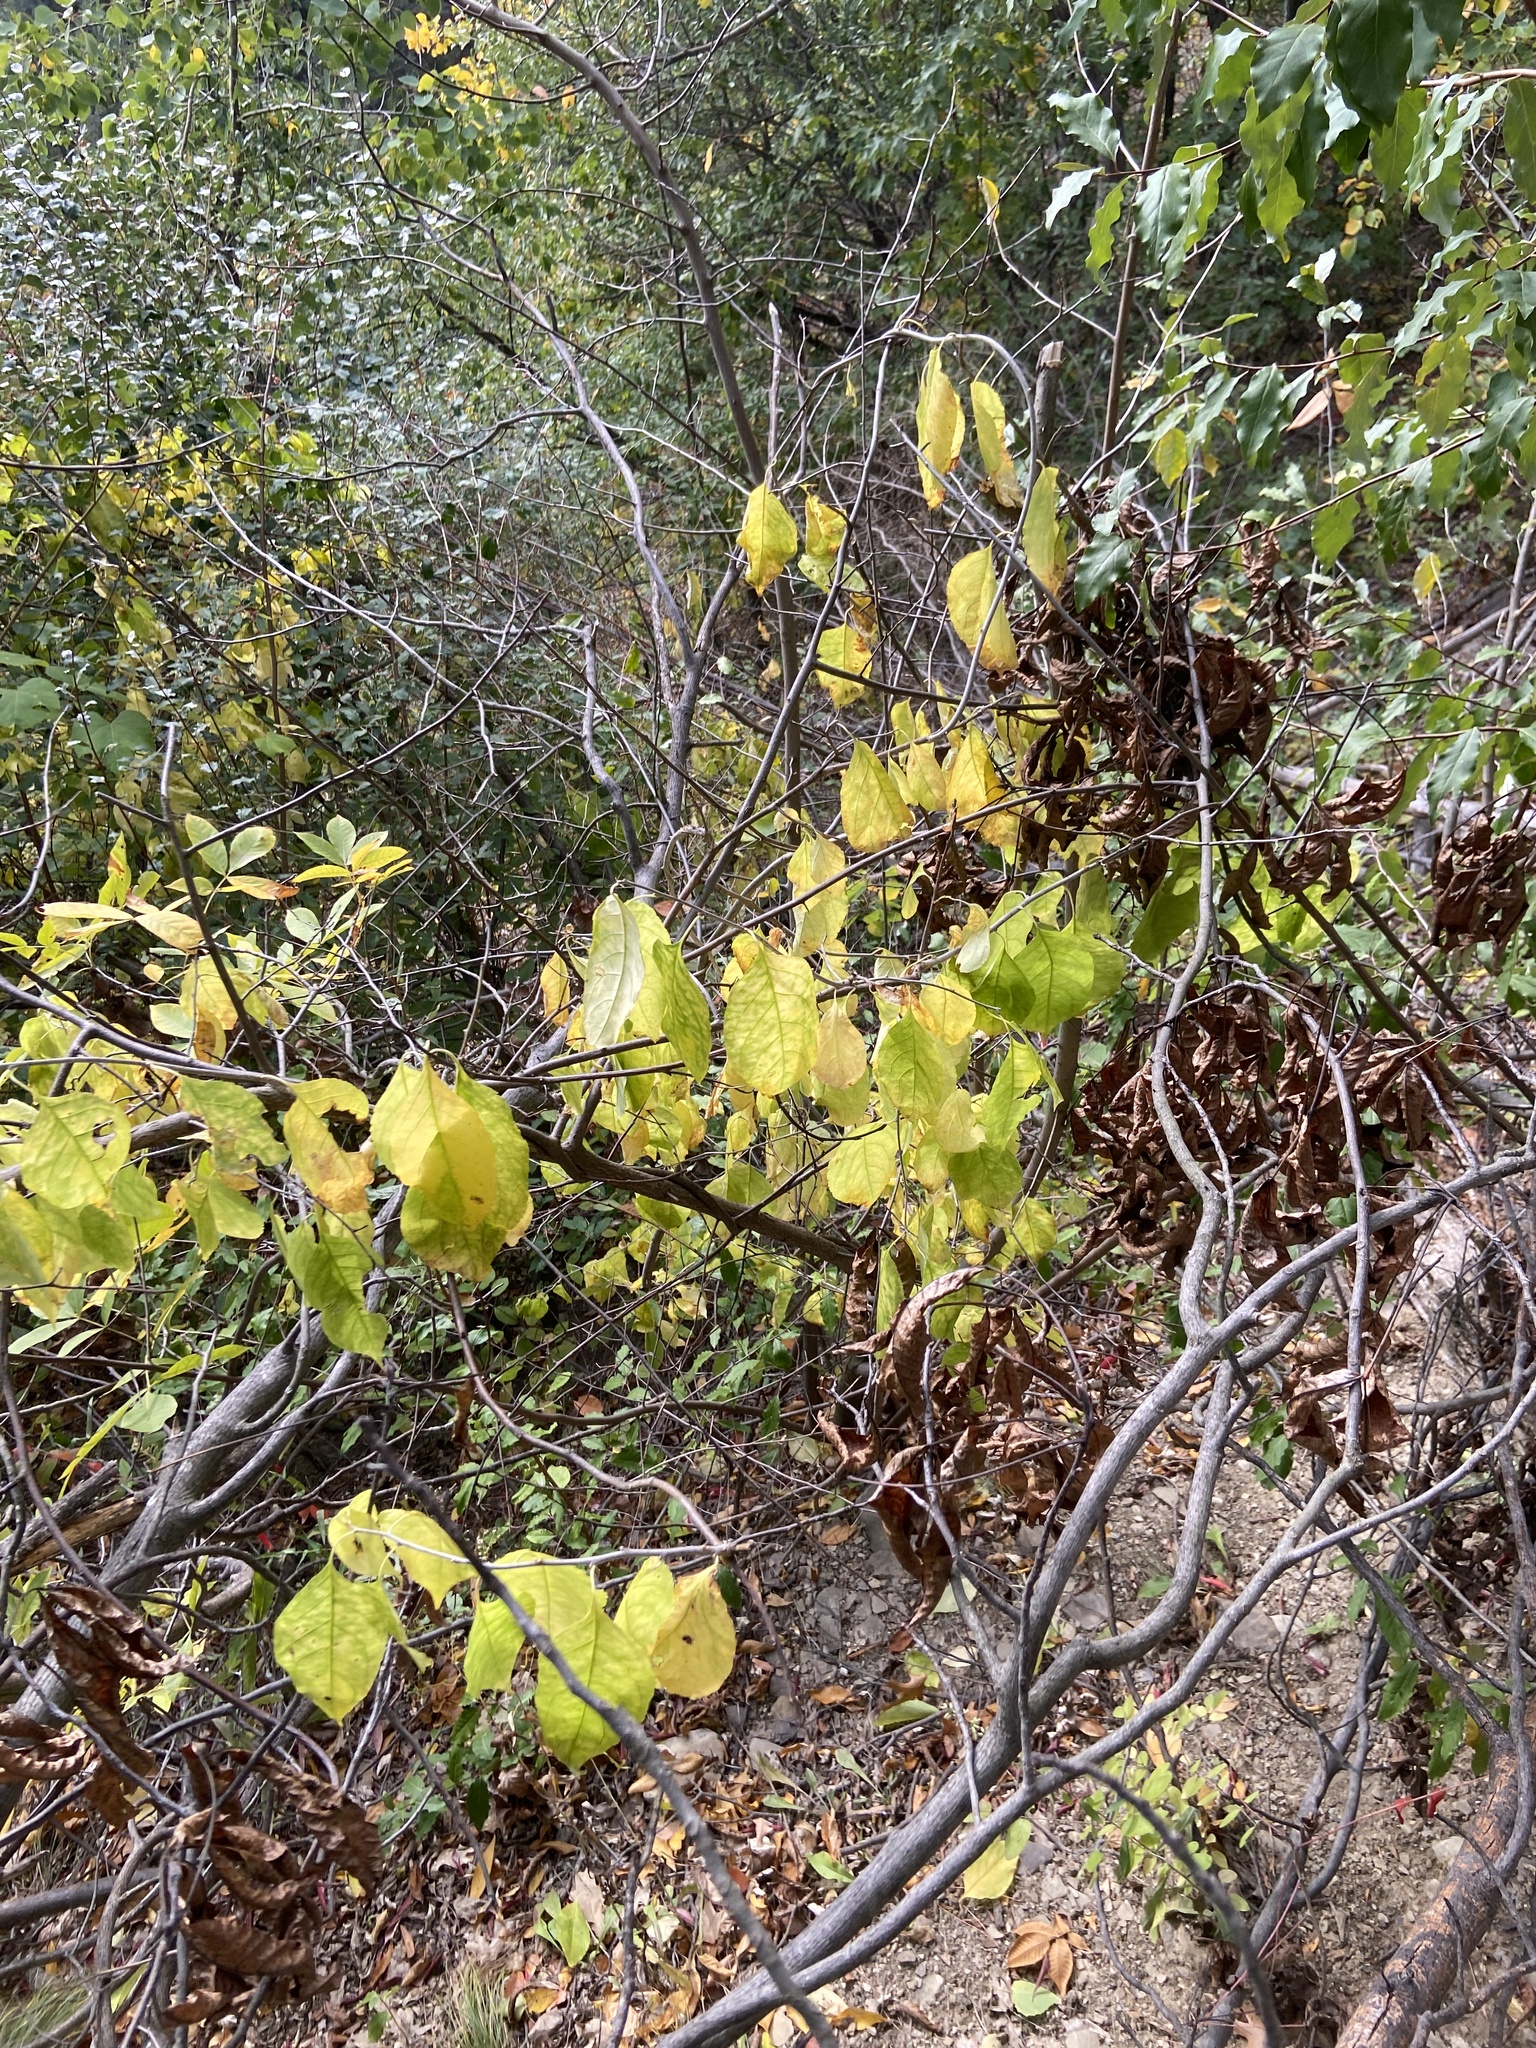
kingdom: Plantae
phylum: Tracheophyta
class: Magnoliopsida
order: Celastrales
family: Celastraceae
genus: Celastrus
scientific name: Celastrus scandens
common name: American bittersweet
